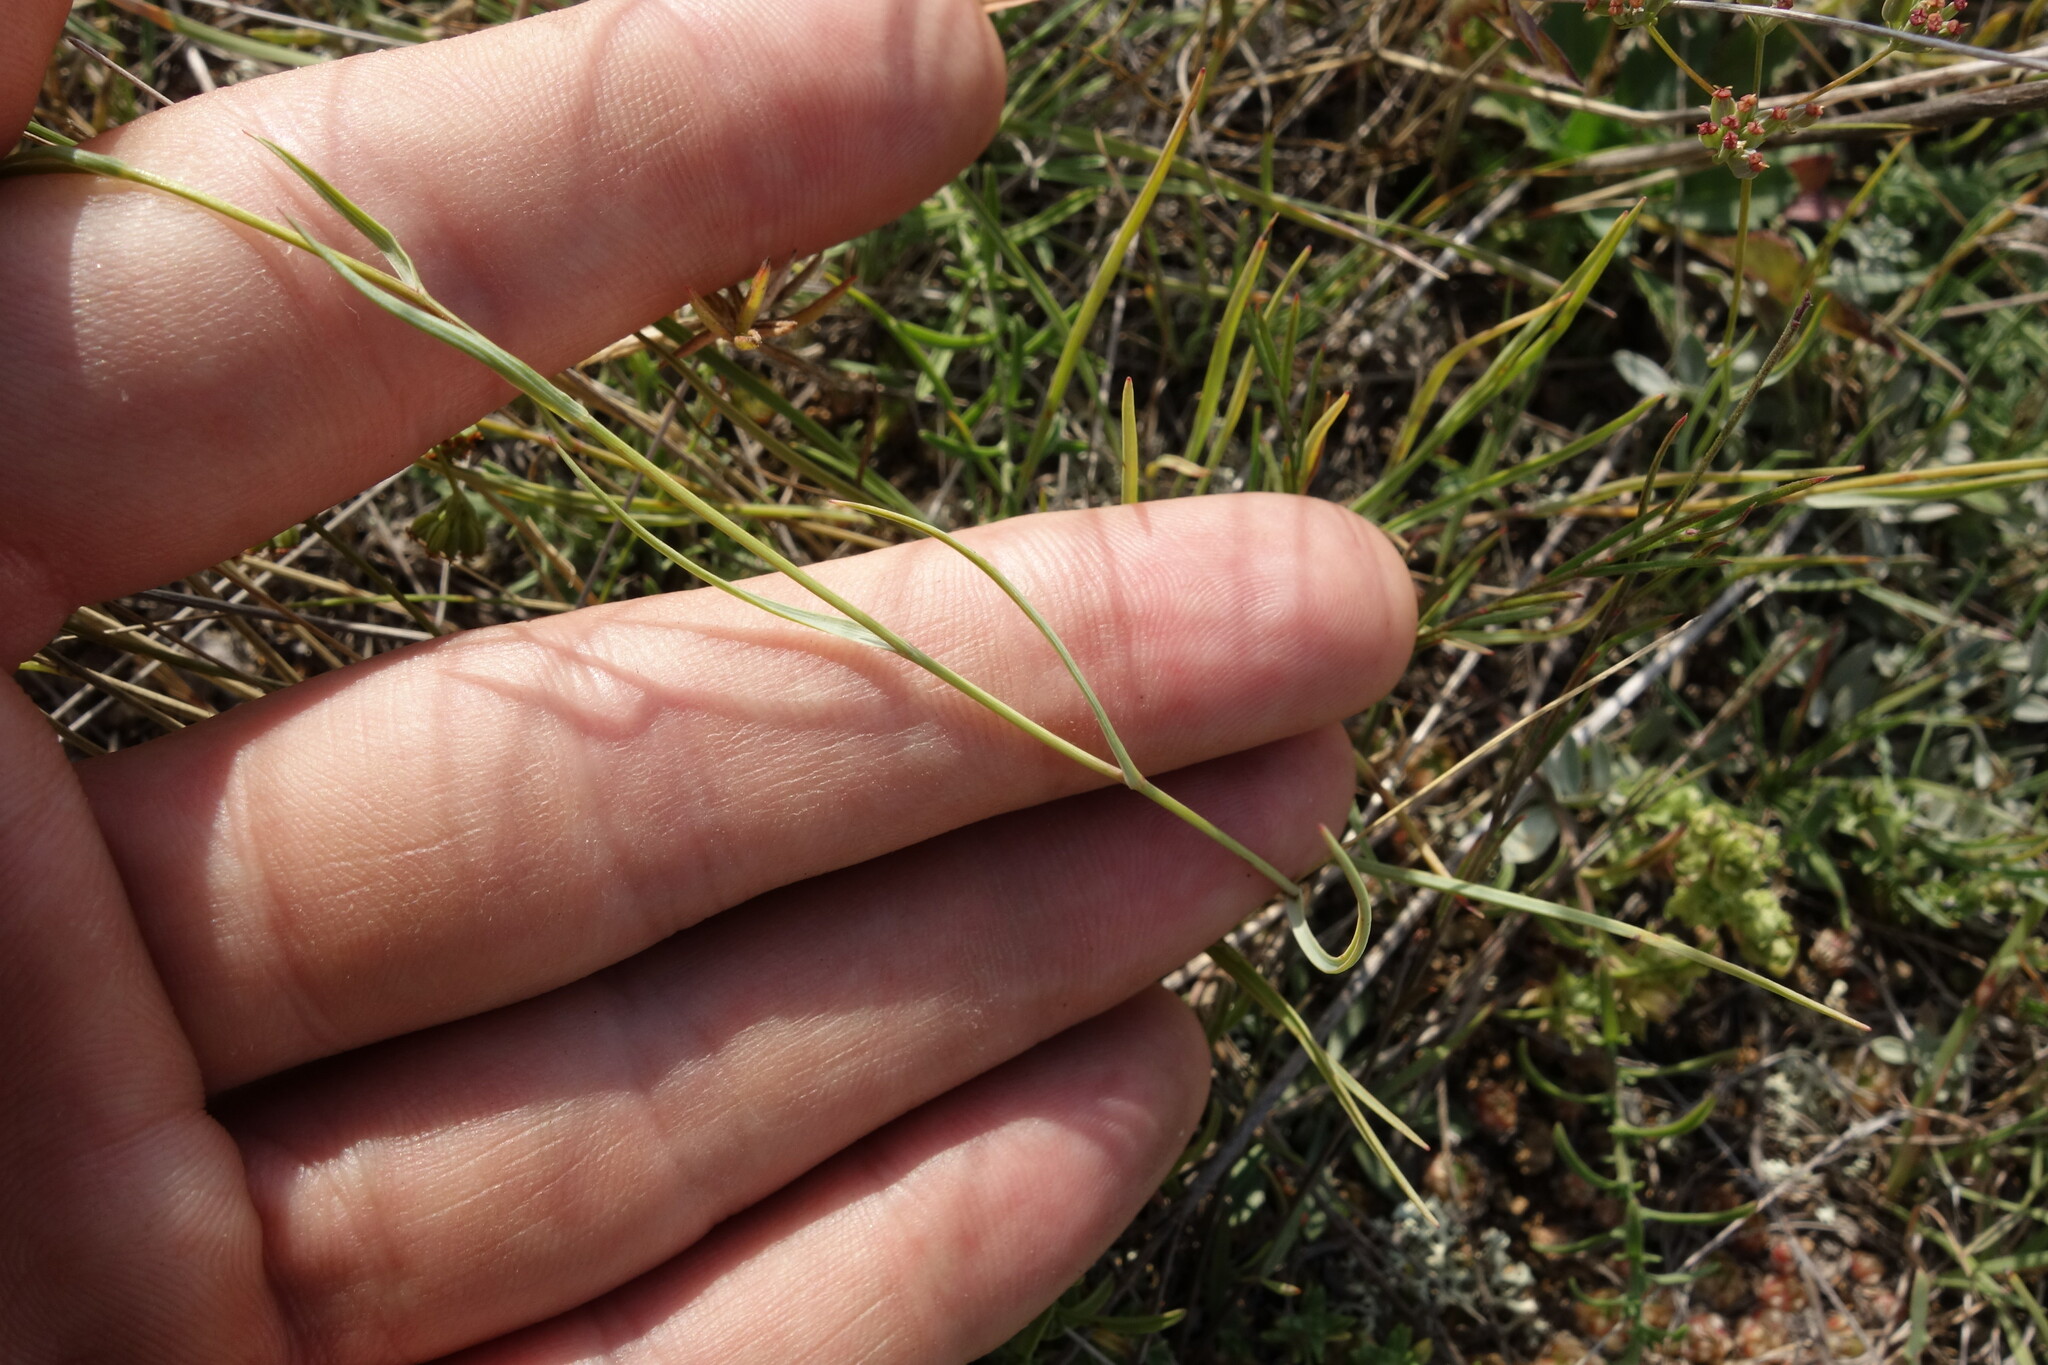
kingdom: Plantae
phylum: Tracheophyta
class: Magnoliopsida
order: Apiales
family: Apiaceae
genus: Bupleurum
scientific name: Bupleurum bicaule
